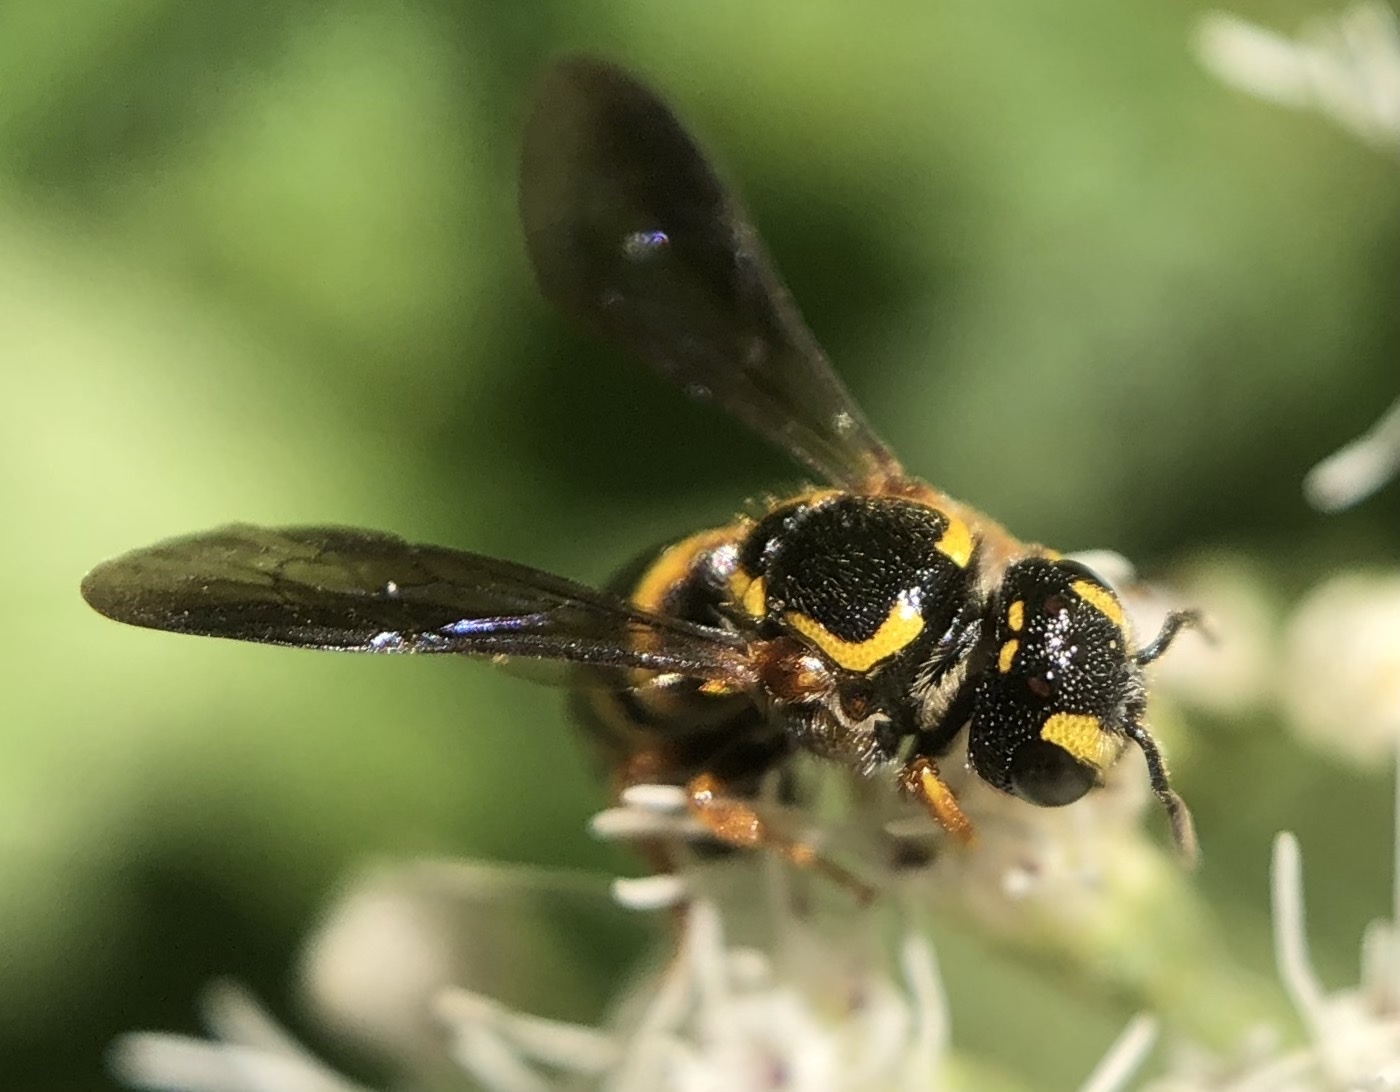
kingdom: Animalia
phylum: Arthropoda
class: Insecta
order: Hymenoptera
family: Megachilidae
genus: Stelis
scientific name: Stelis louisae
